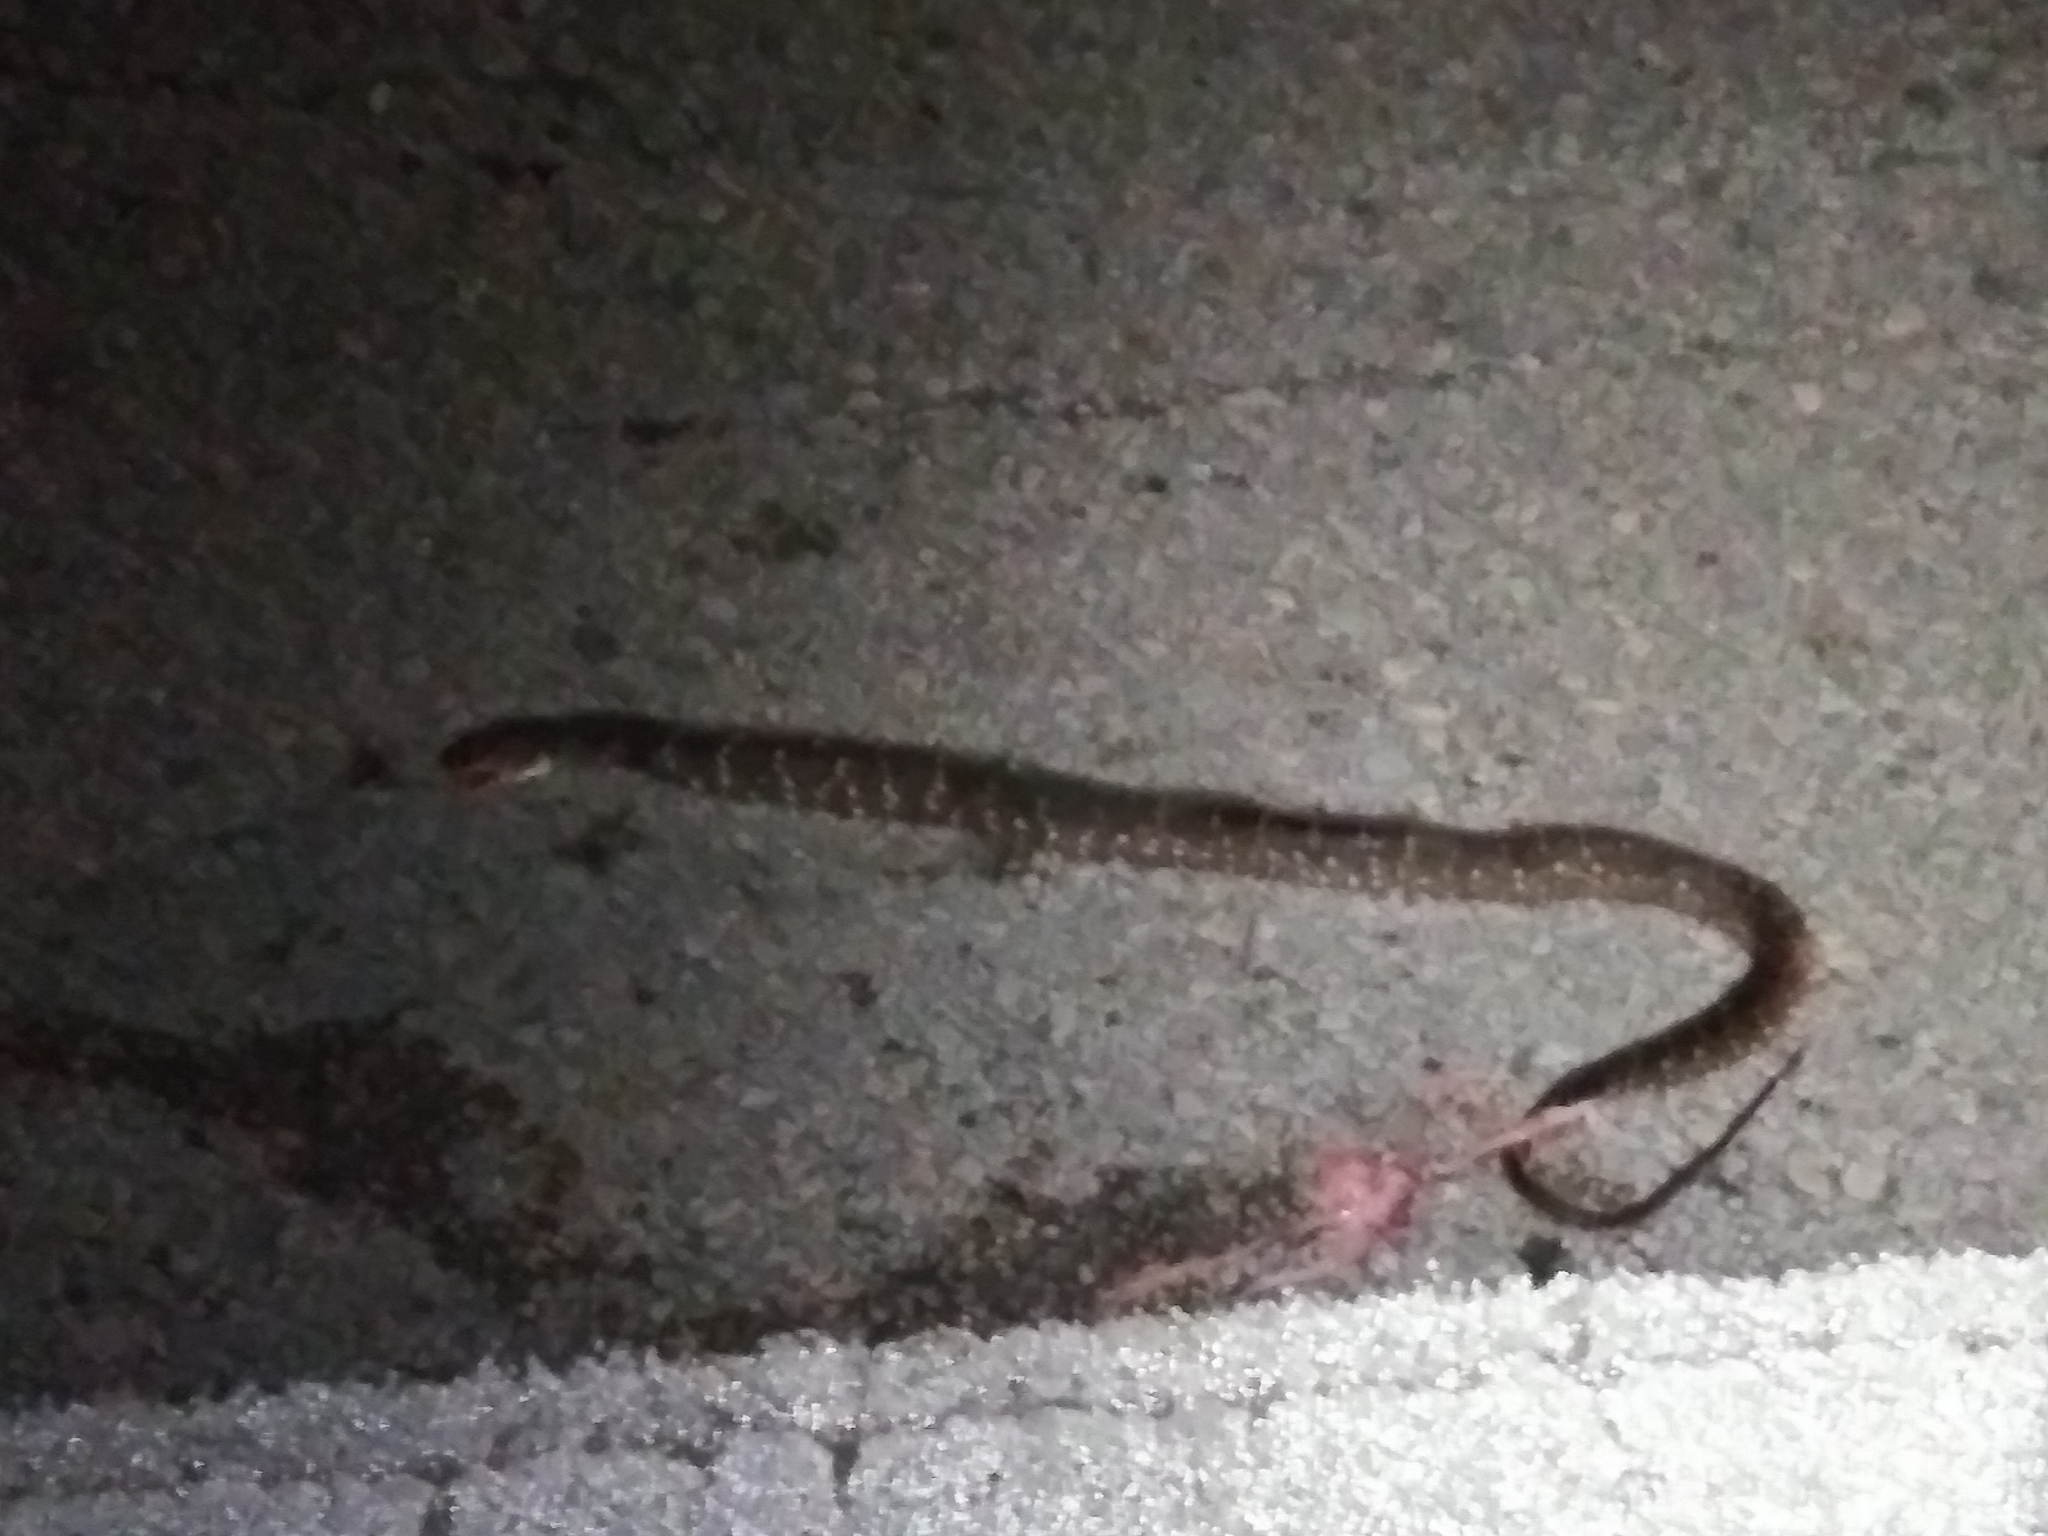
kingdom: Animalia
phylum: Chordata
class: Squamata
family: Colubridae
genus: Nerodia
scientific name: Nerodia fasciata
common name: Southern water snake
